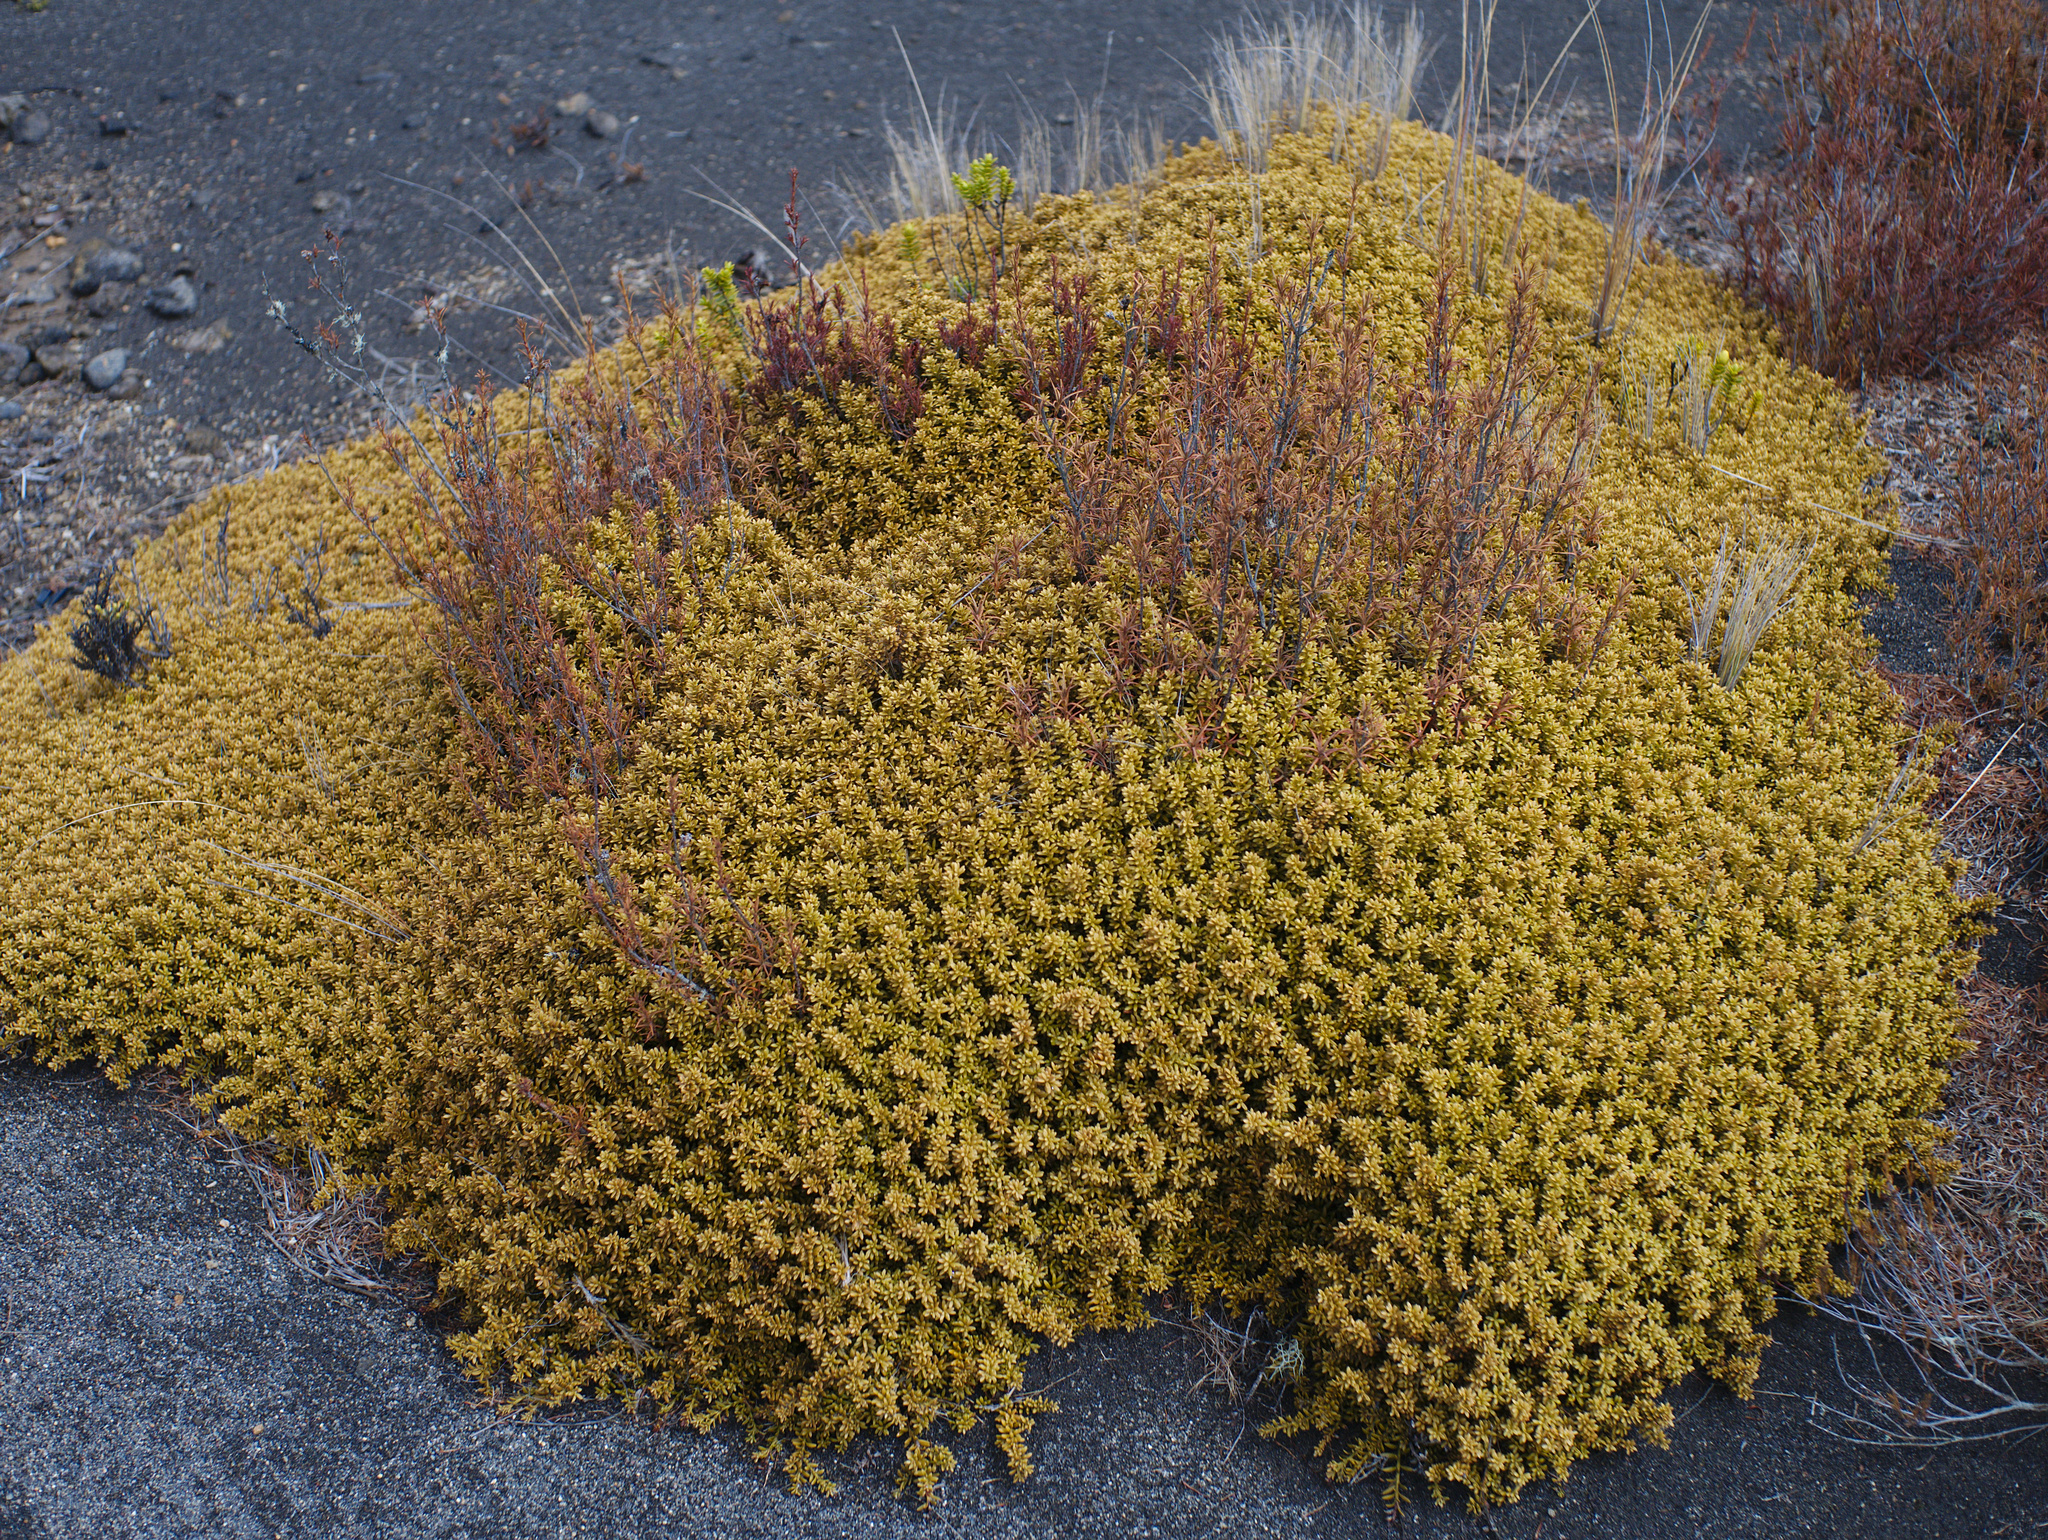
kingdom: Plantae
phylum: Tracheophyta
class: Pinopsida
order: Pinales
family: Podocarpaceae
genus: Podocarpus
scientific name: Podocarpus nivalis
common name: Alpine totara
